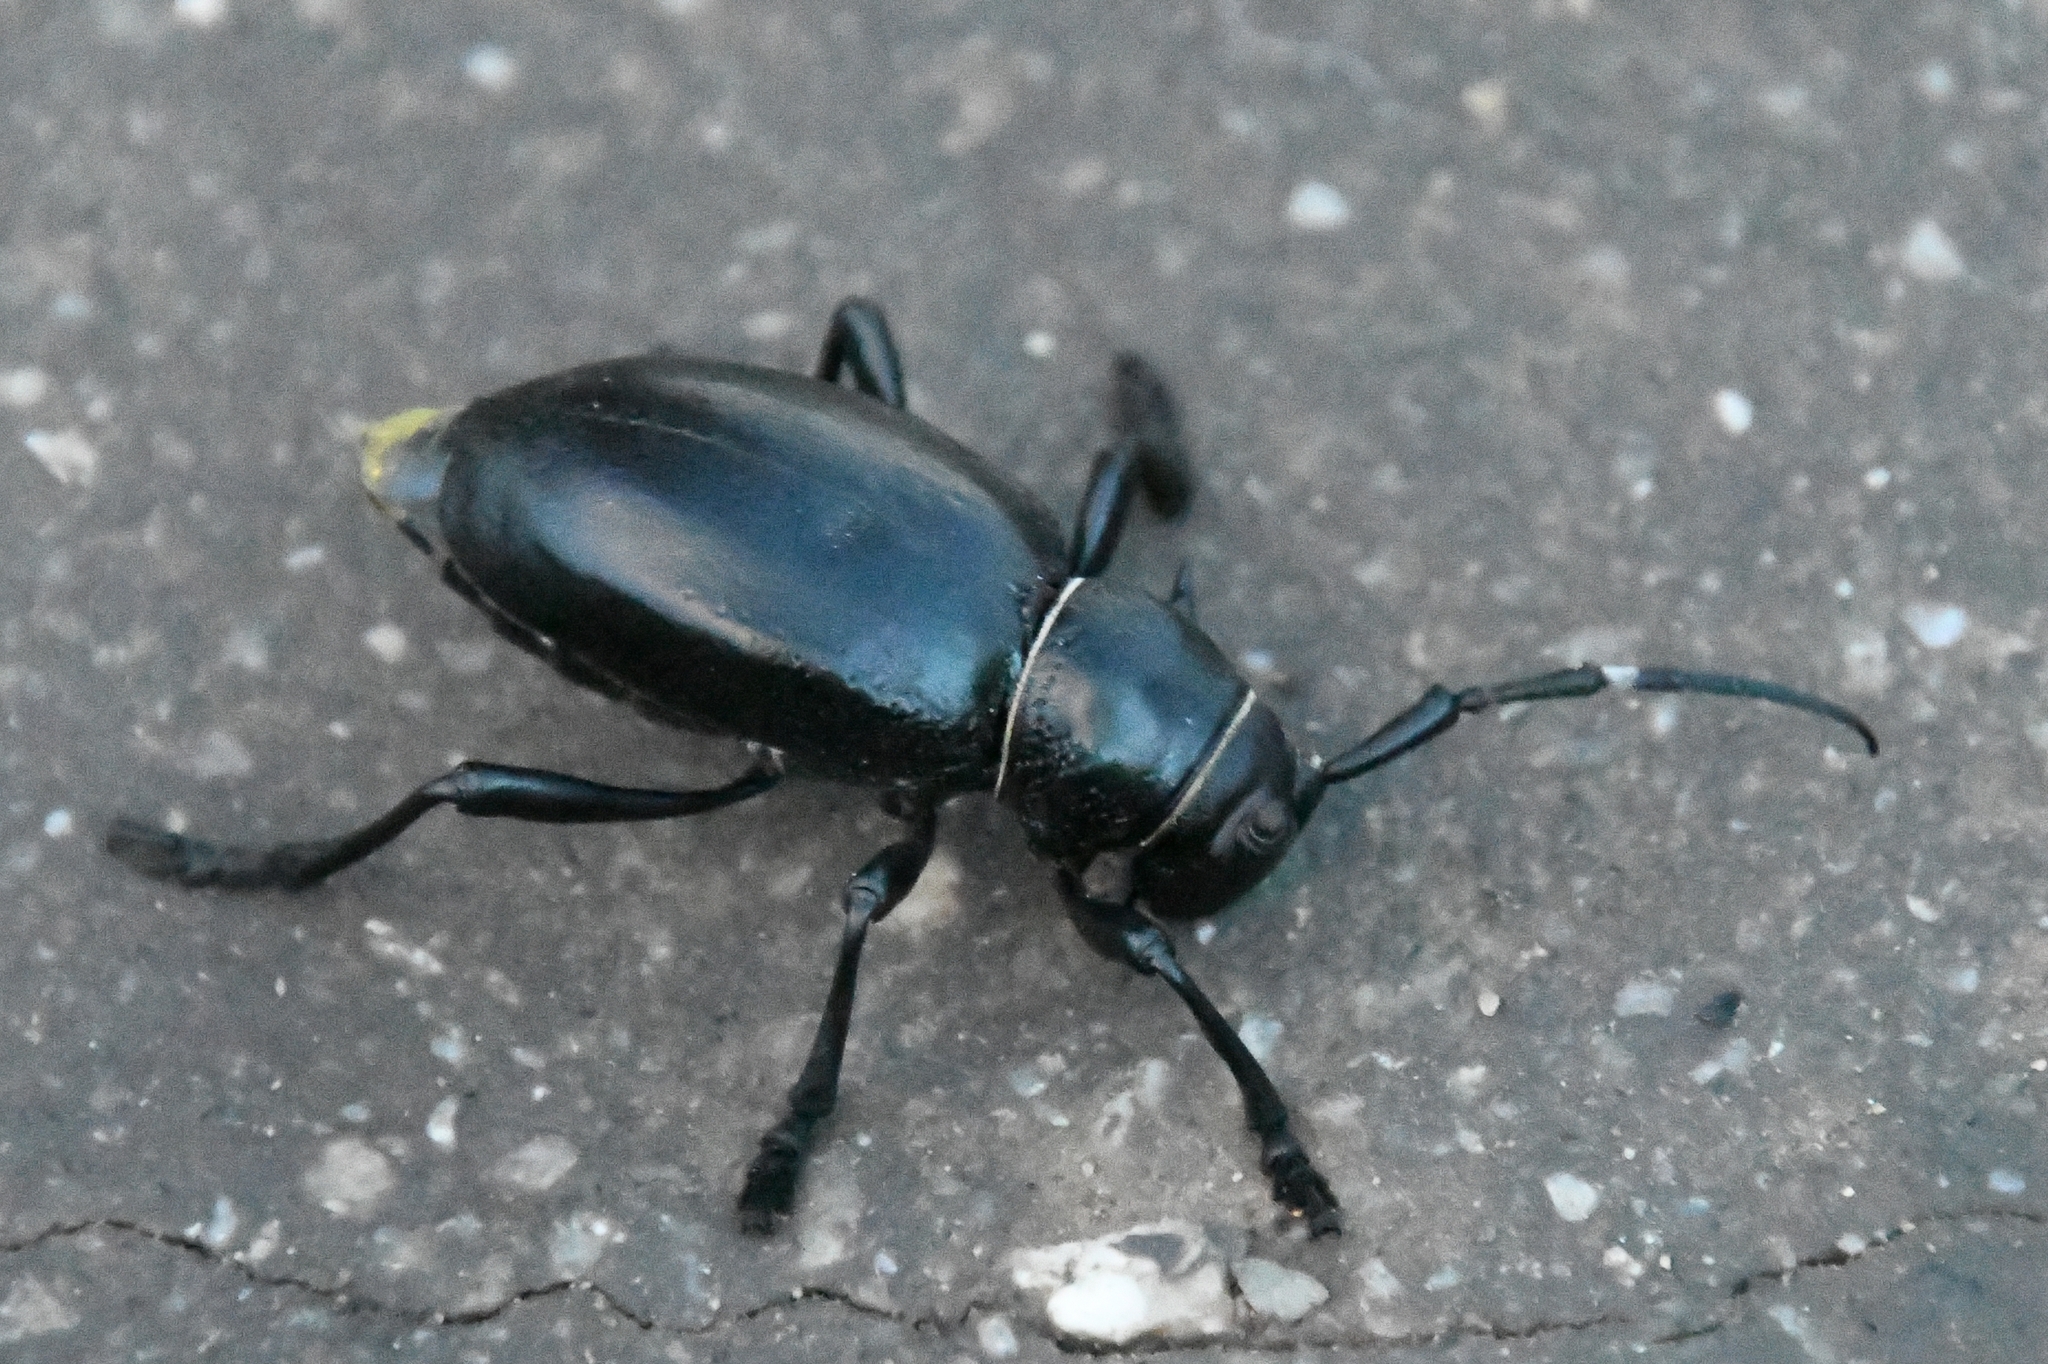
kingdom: Animalia
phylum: Arthropoda
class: Insecta
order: Coleoptera
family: Cerambycidae
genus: Moneilema
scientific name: Moneilema gigas
